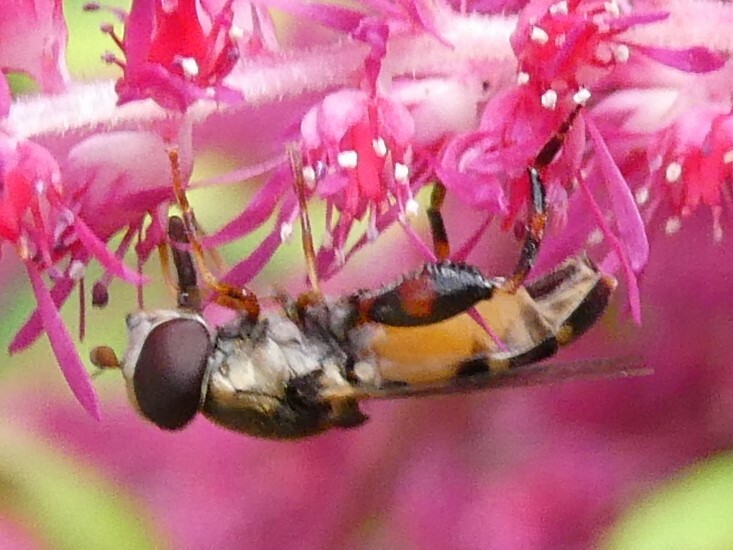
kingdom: Animalia
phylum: Arthropoda
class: Insecta
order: Diptera
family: Syrphidae
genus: Syritta
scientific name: Syritta pipiens
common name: Hover fly
